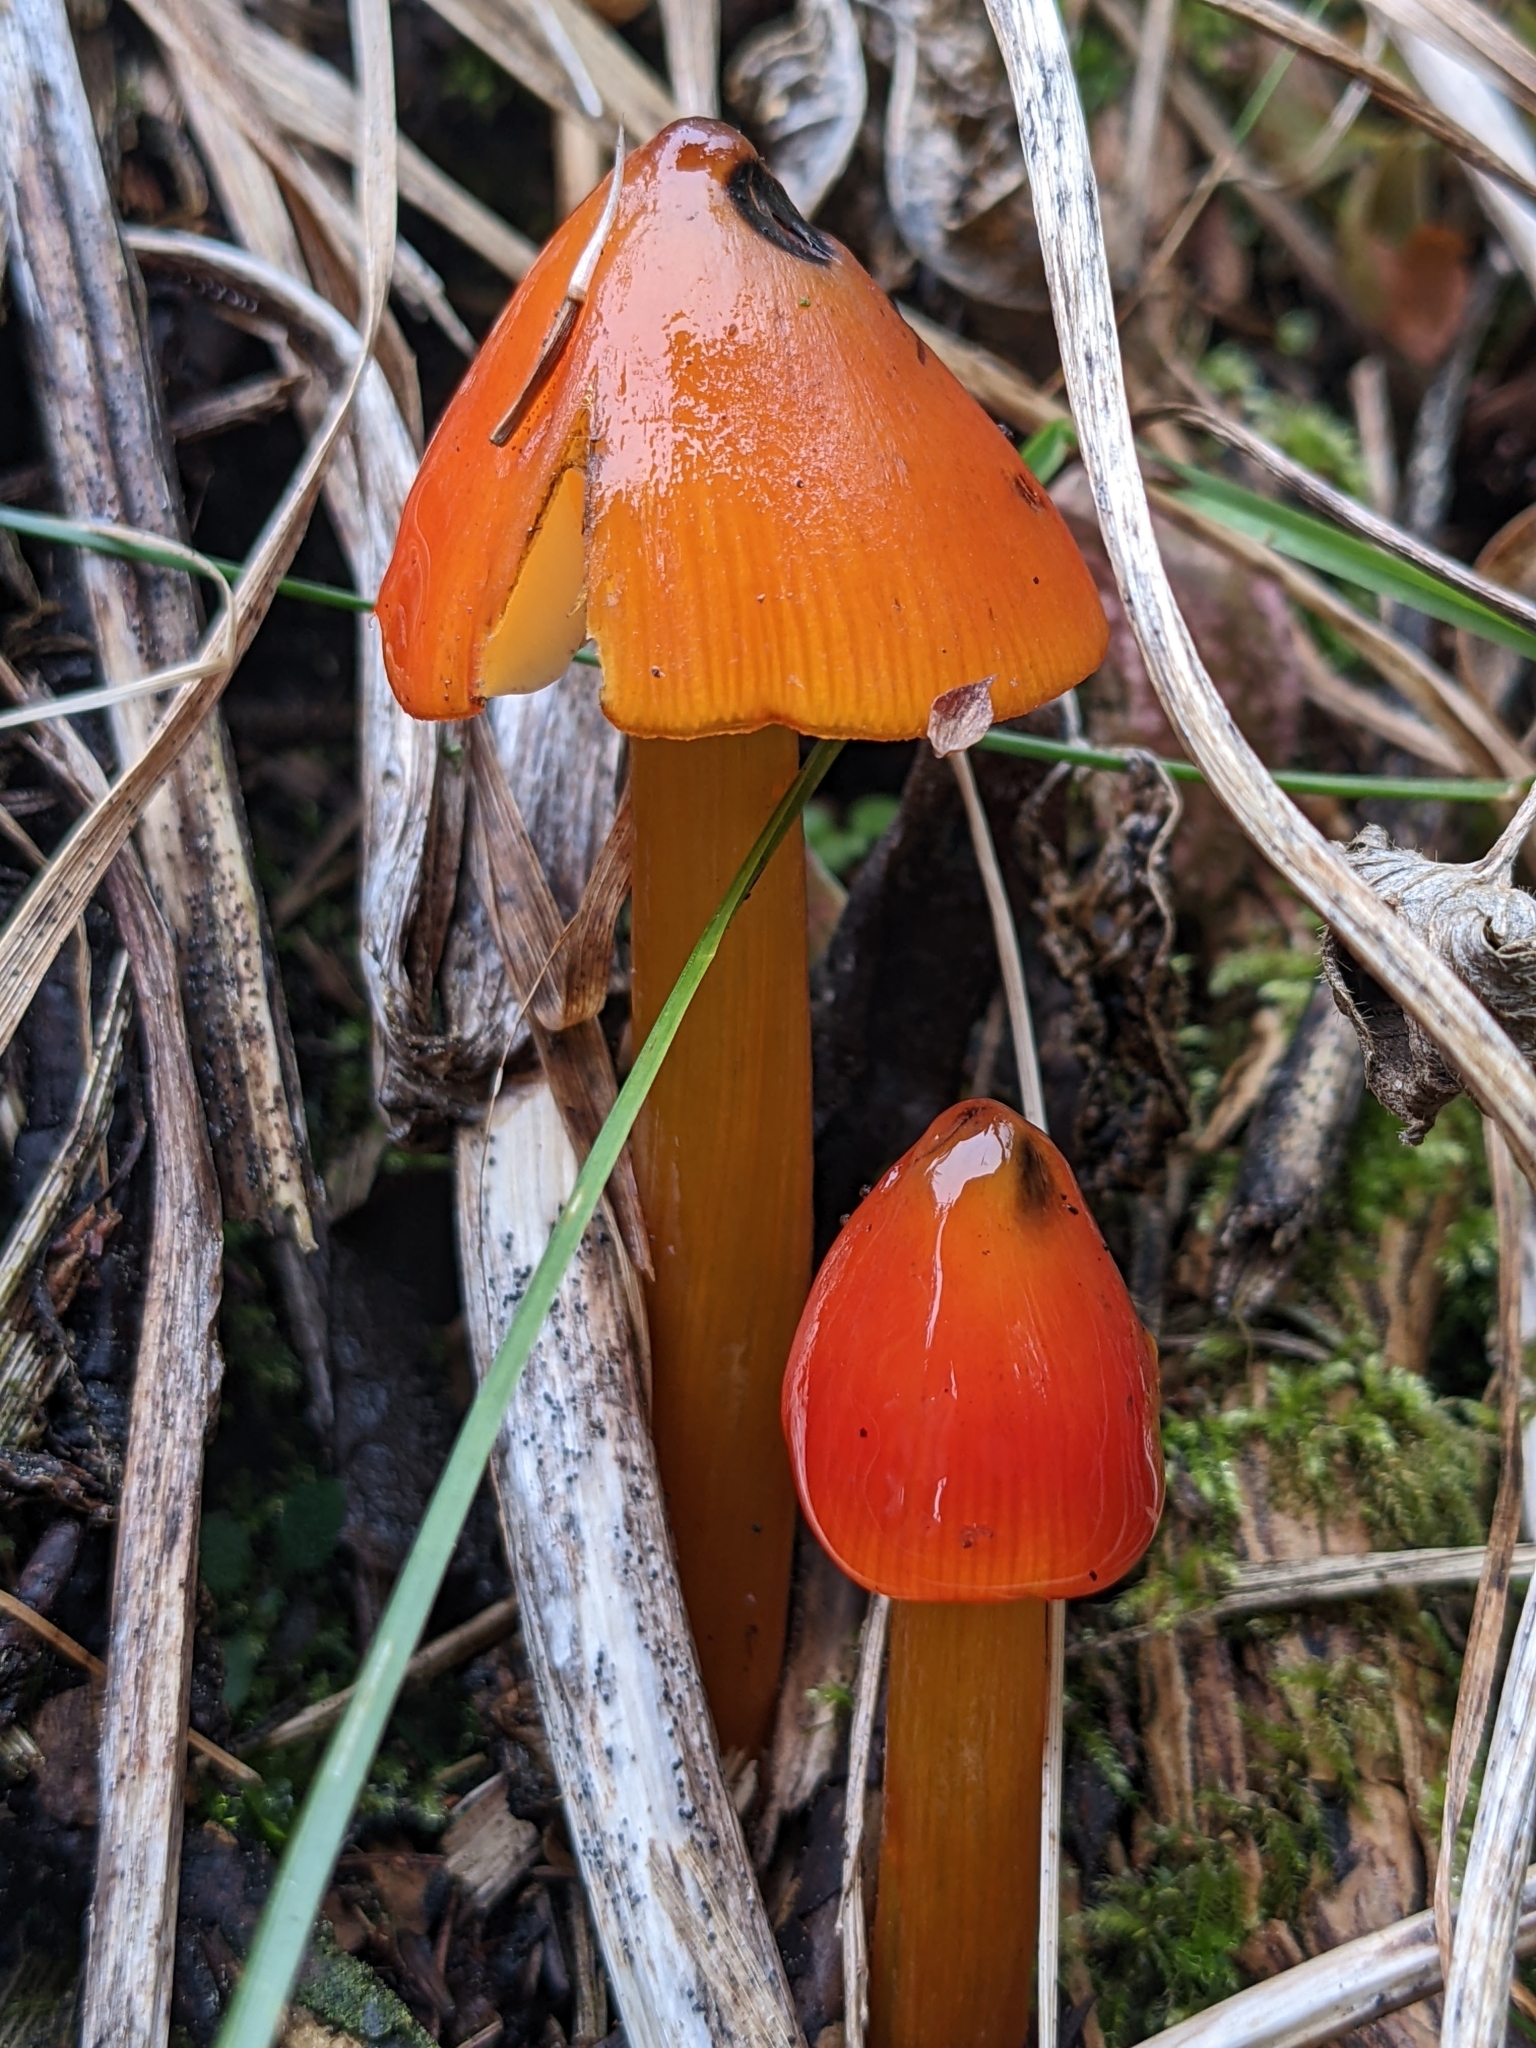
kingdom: Fungi
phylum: Basidiomycota
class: Agaricomycetes
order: Agaricales
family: Hygrophoraceae
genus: Hygrocybe
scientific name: Hygrocybe conica
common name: Blackening wax-cap
